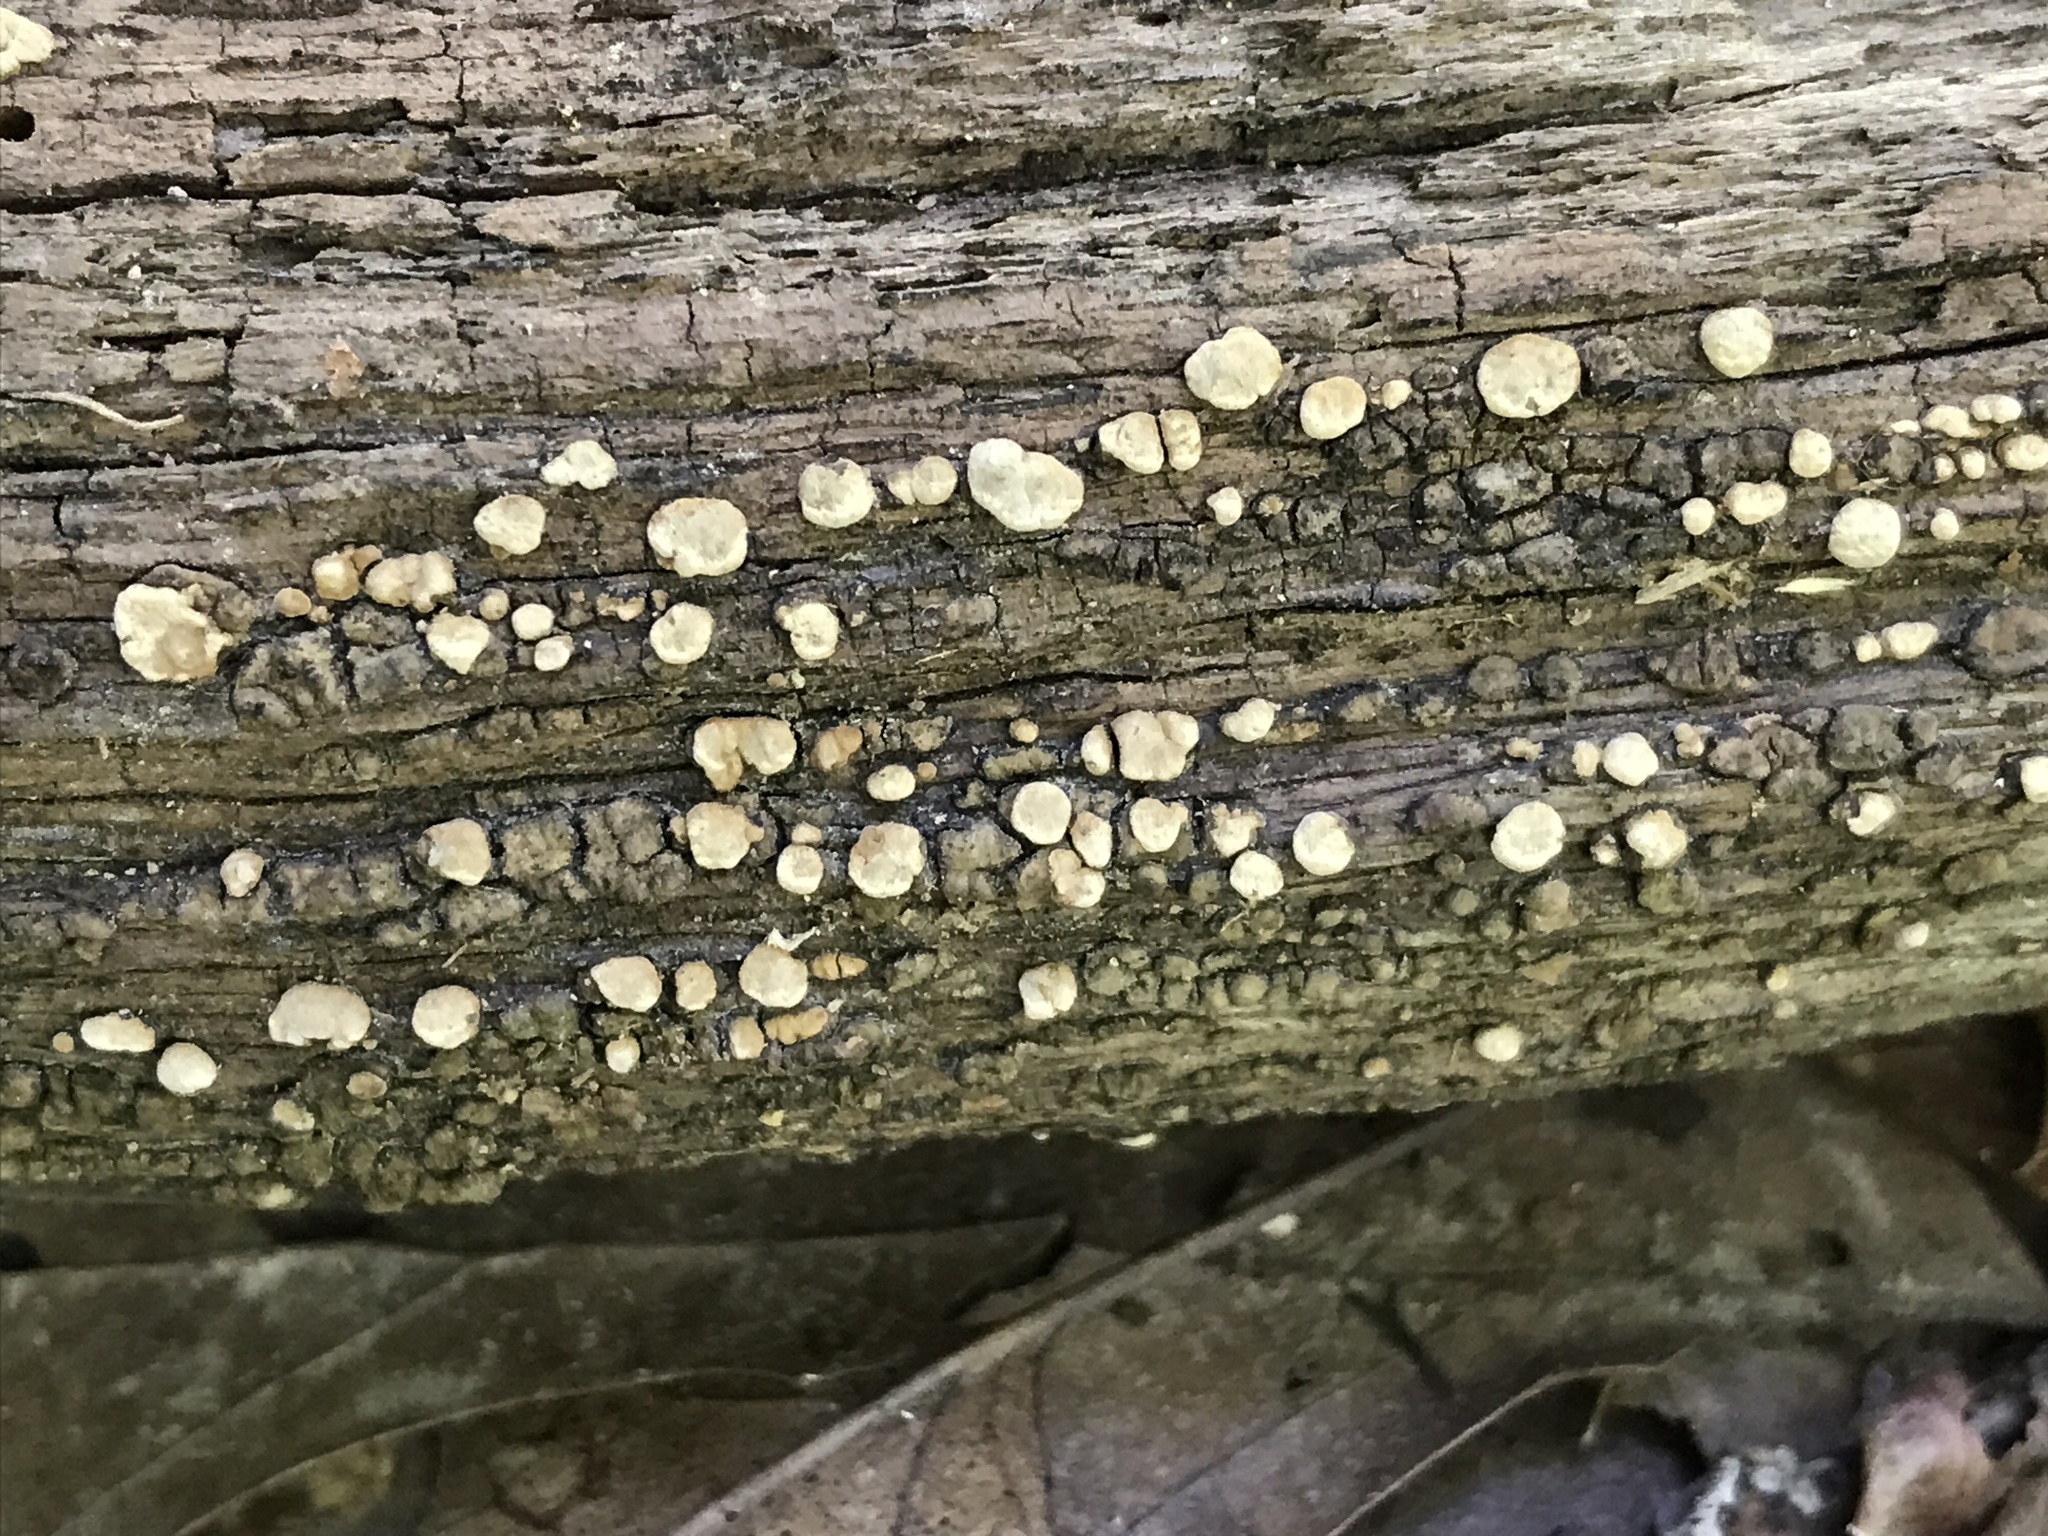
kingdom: Fungi
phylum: Basidiomycota
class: Agaricomycetes
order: Russulales
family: Stereaceae
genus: Xylobolus
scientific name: Xylobolus frustulatus
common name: Ceramic parchment
